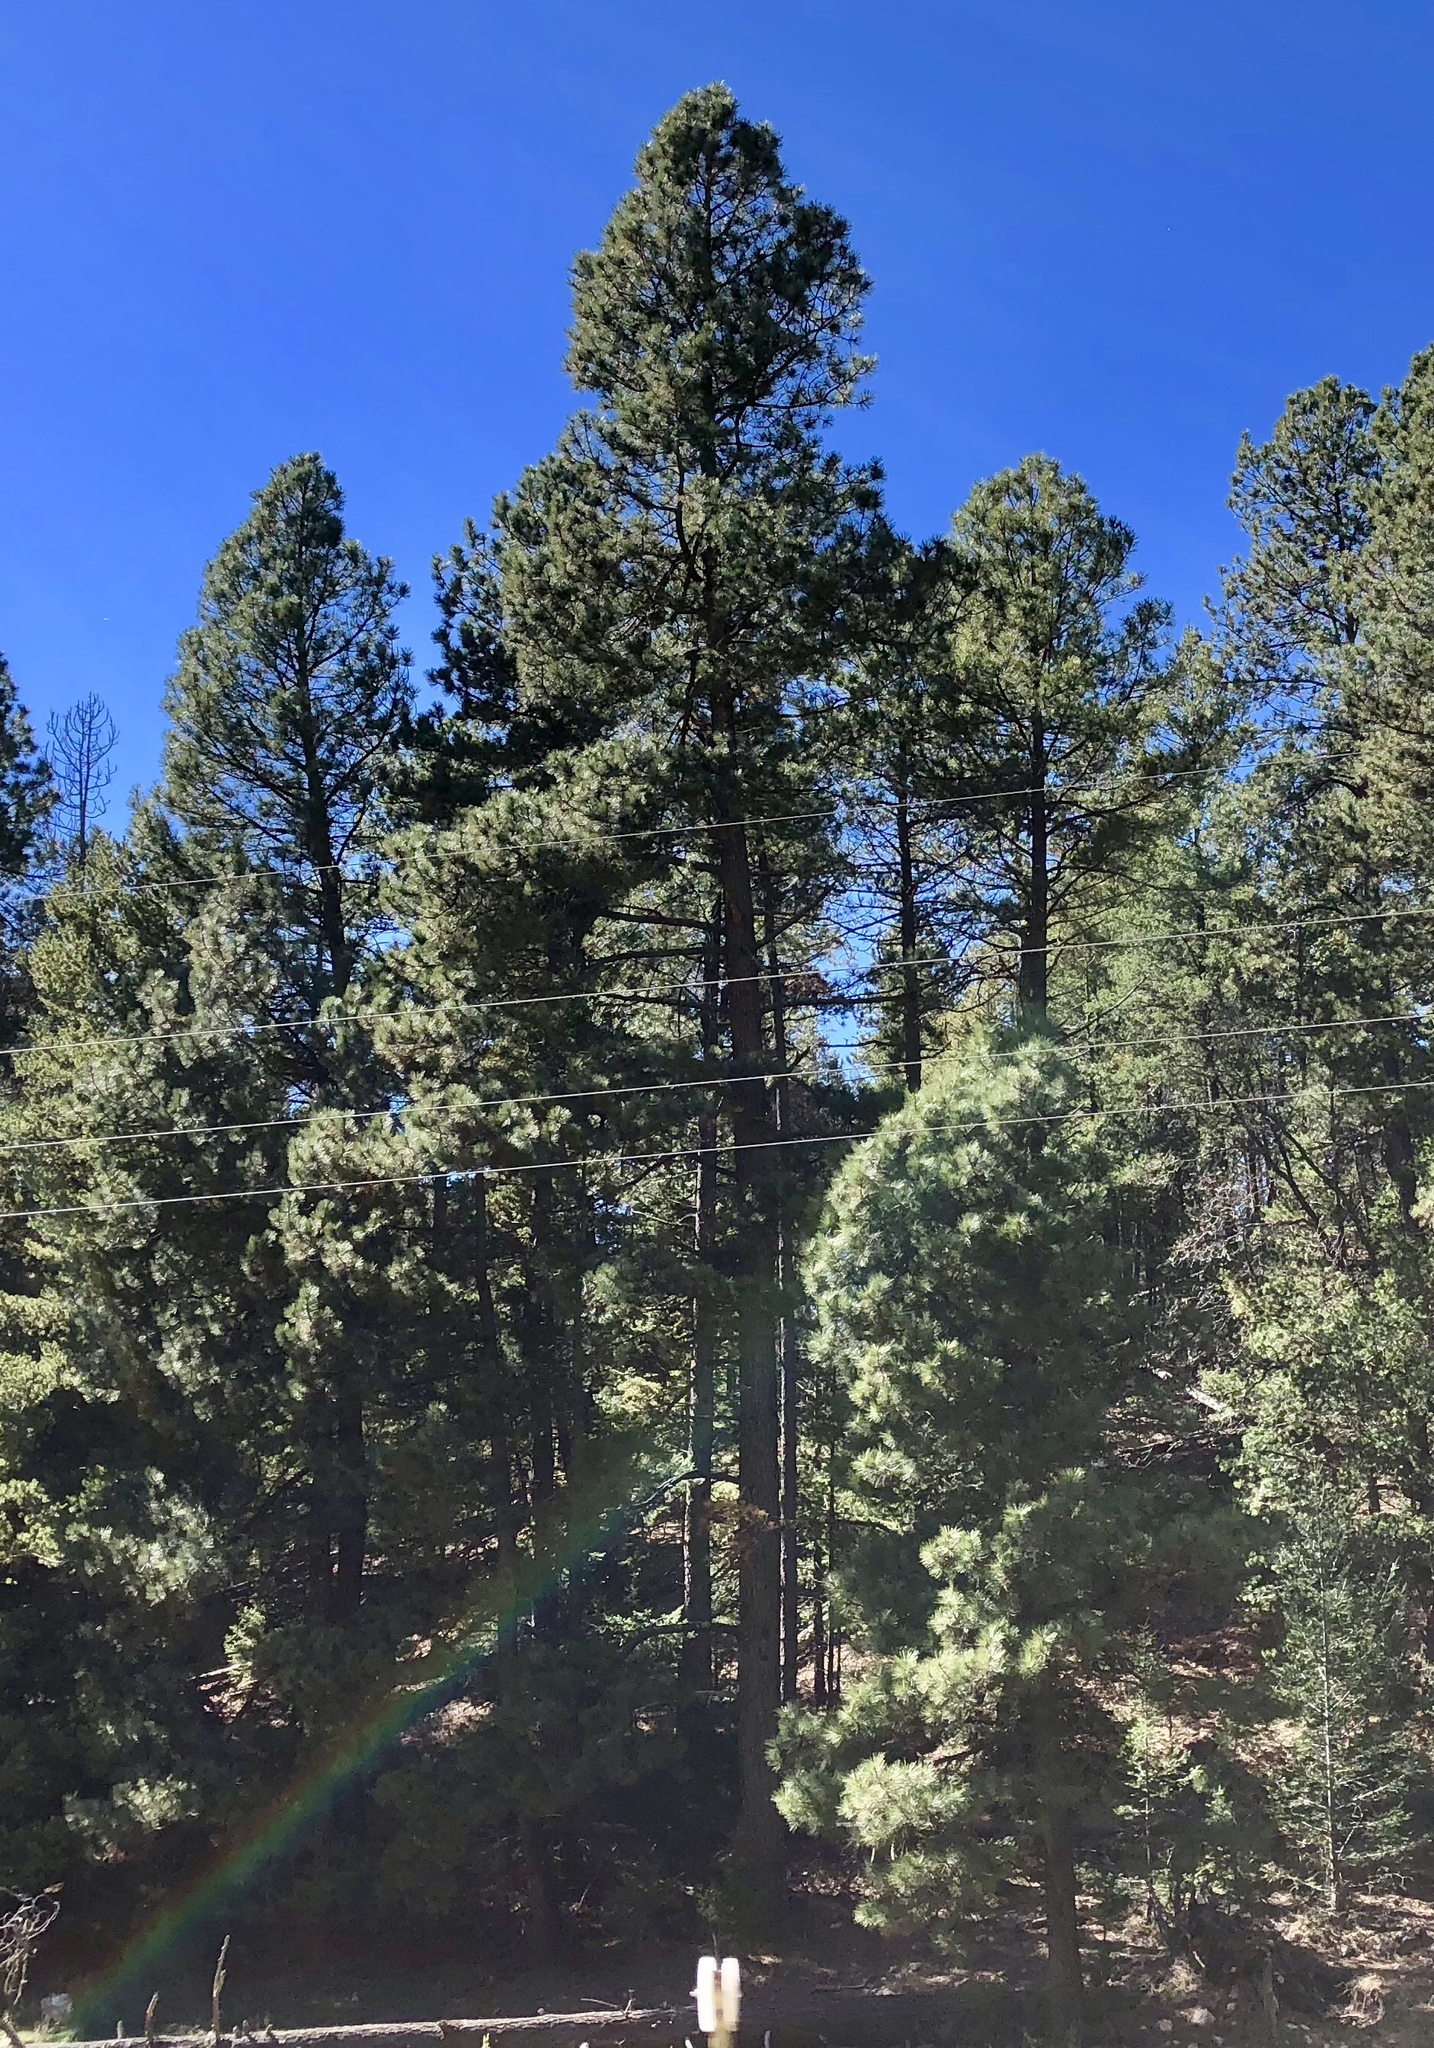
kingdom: Plantae
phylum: Tracheophyta
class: Pinopsida
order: Pinales
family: Pinaceae
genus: Pinus
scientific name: Pinus ponderosa
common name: Western yellow-pine
